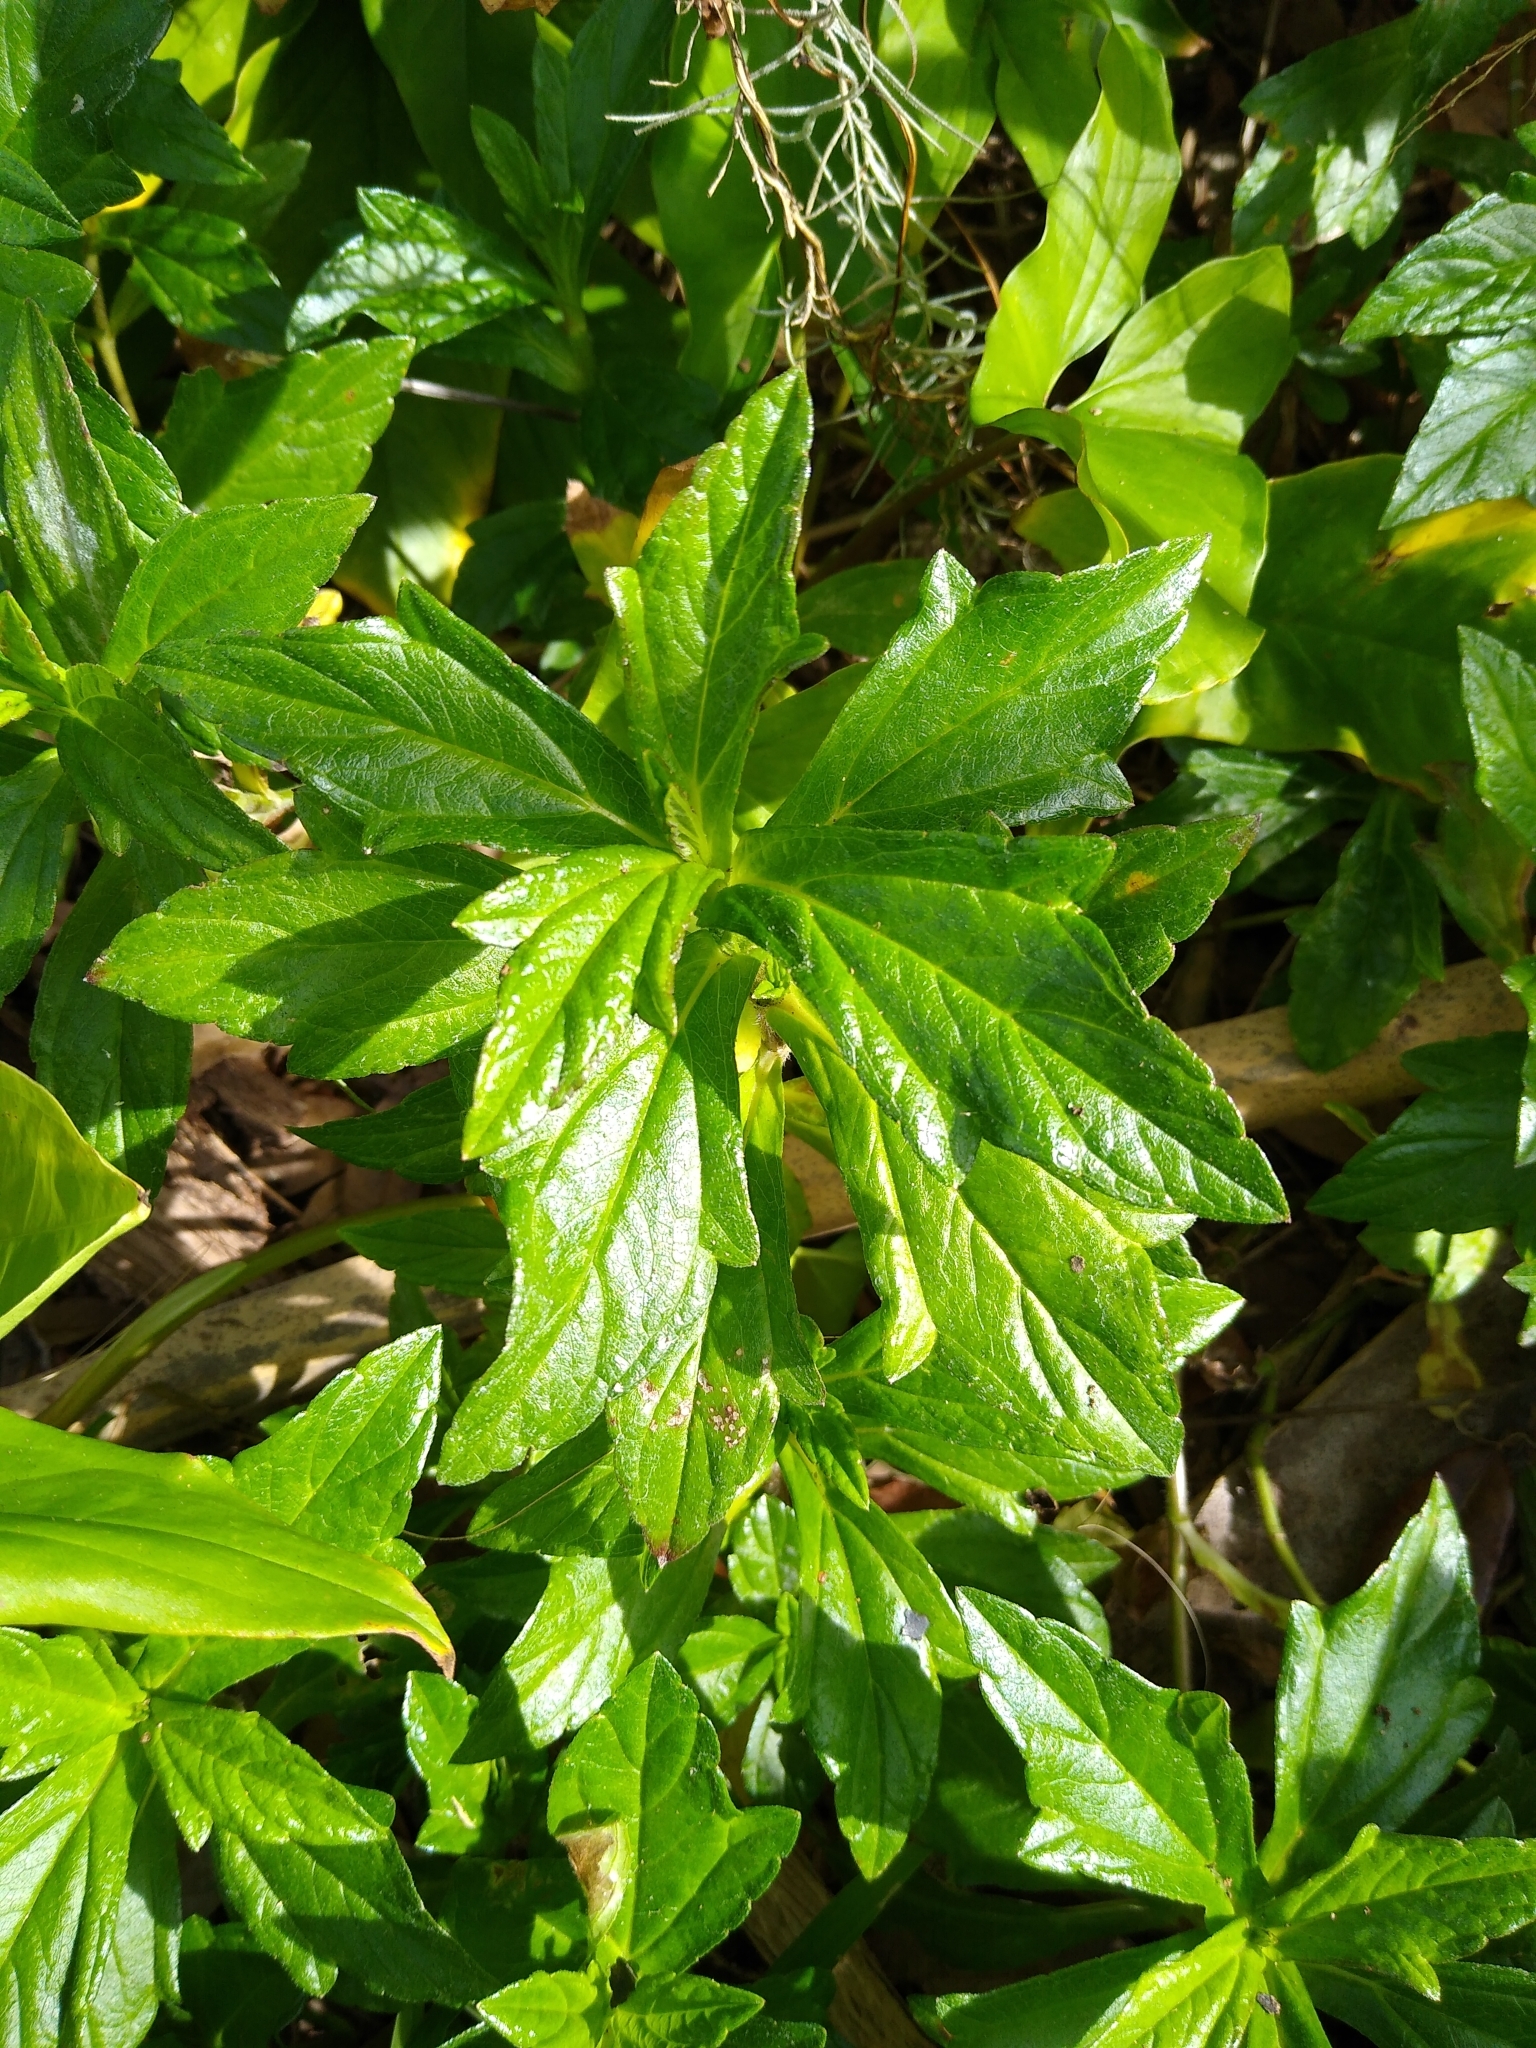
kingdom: Plantae
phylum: Tracheophyta
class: Magnoliopsida
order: Asterales
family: Asteraceae
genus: Sphagneticola
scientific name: Sphagneticola trilobata
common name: Bay biscayne creeping-oxeye
